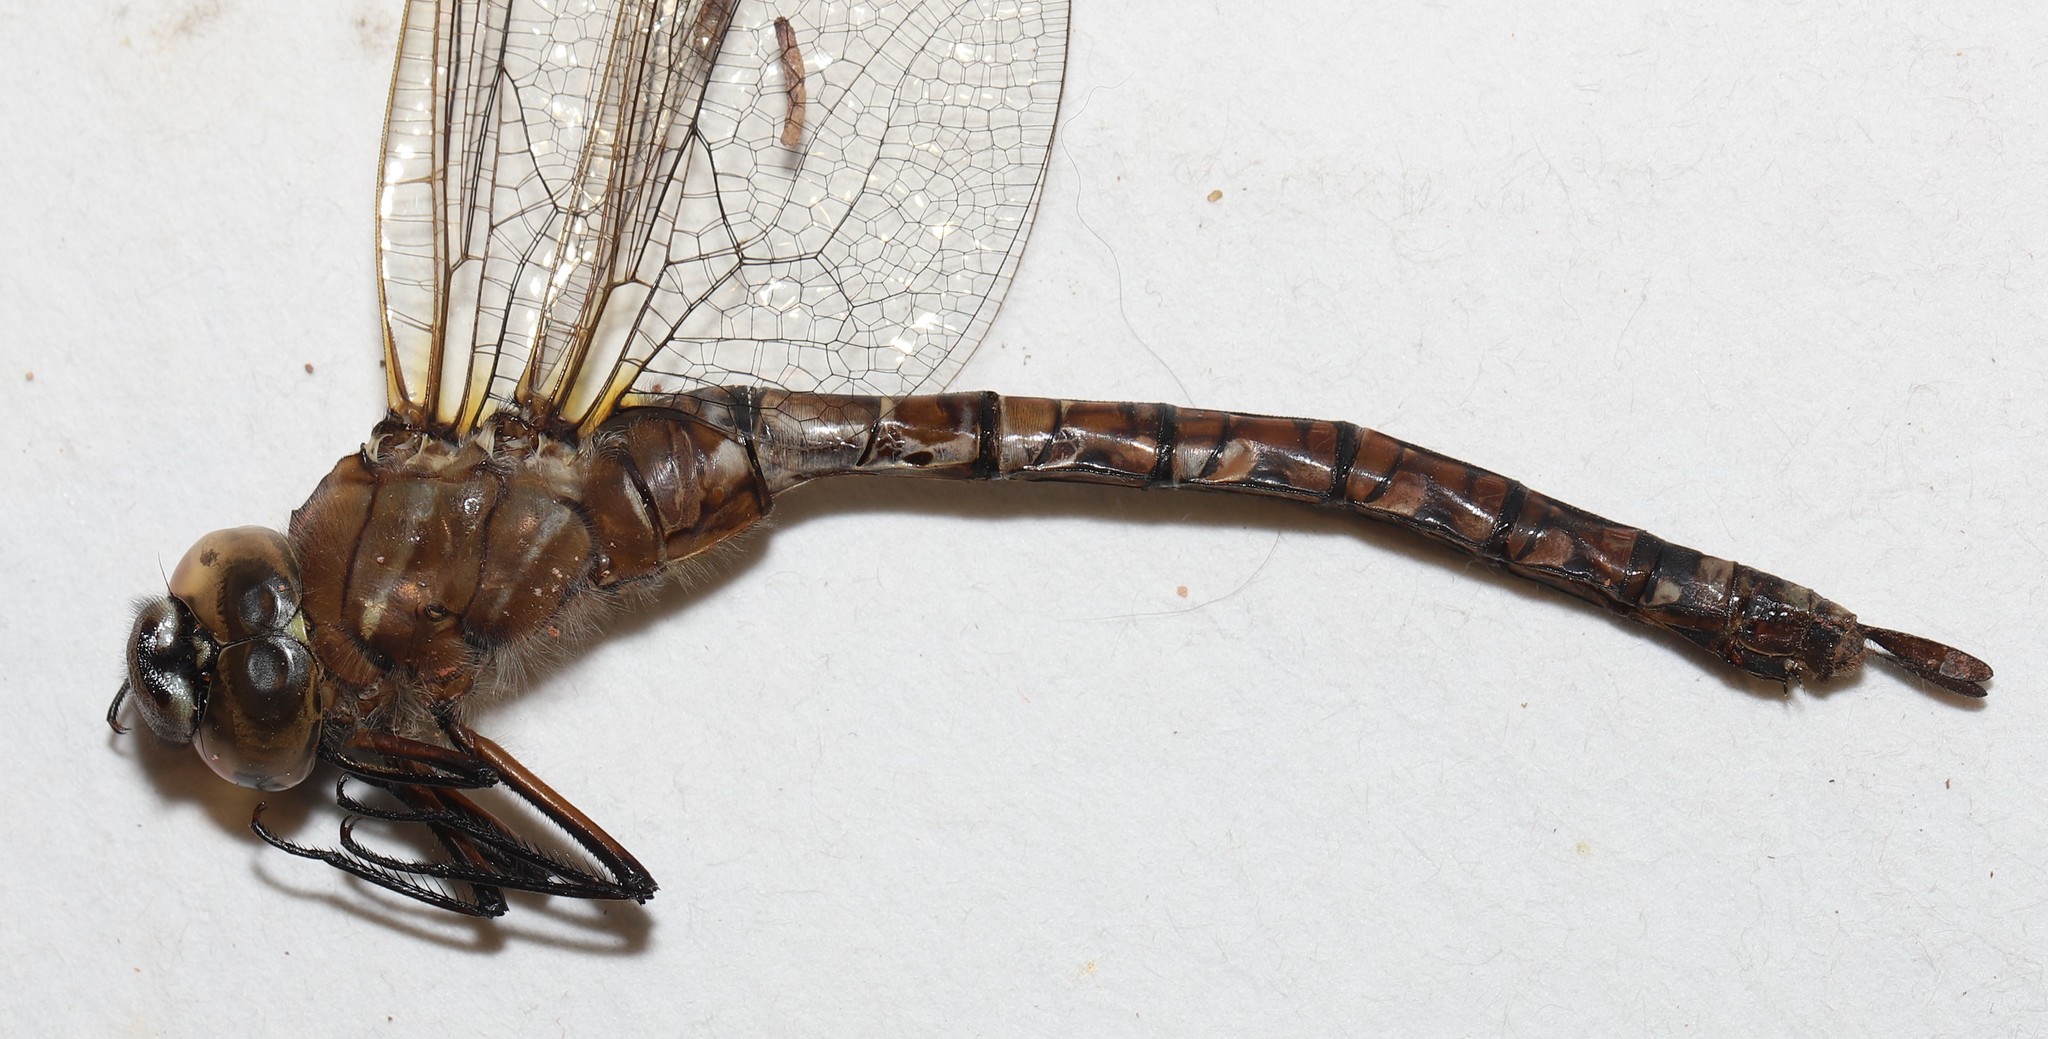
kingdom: Animalia
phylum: Arthropoda
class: Insecta
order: Odonata
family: Aeshnidae
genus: Aeshna
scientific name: Aeshna interrupta
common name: Variable darner
